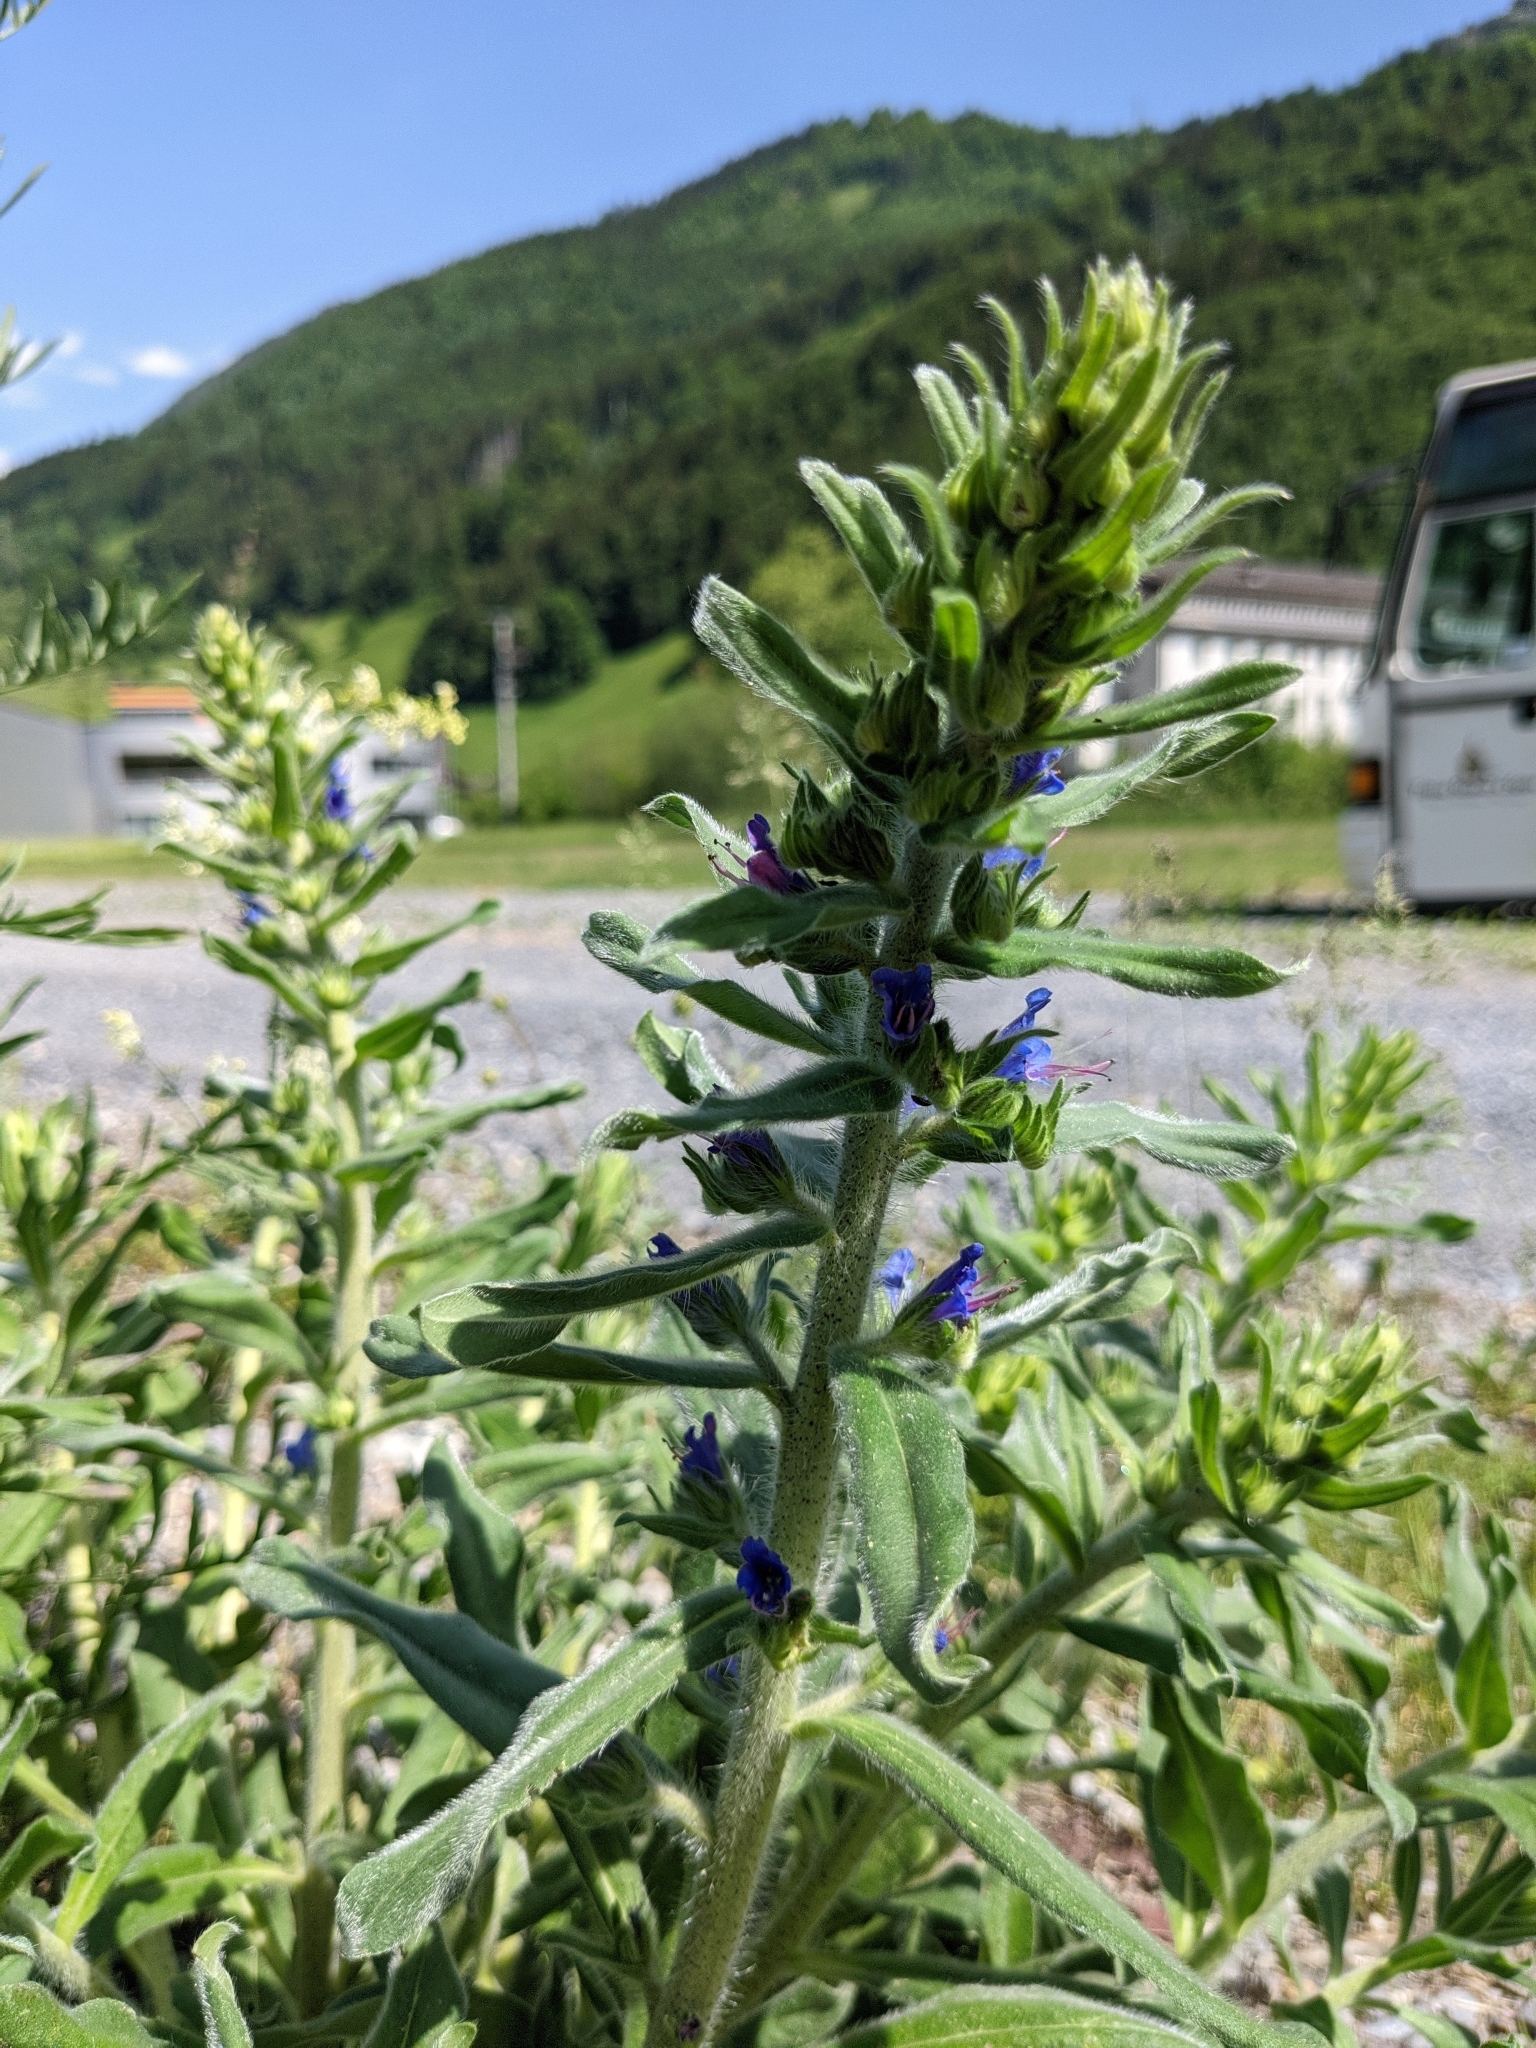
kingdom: Plantae
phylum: Tracheophyta
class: Magnoliopsida
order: Boraginales
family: Boraginaceae
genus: Echium
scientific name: Echium vulgare
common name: Common viper's bugloss
